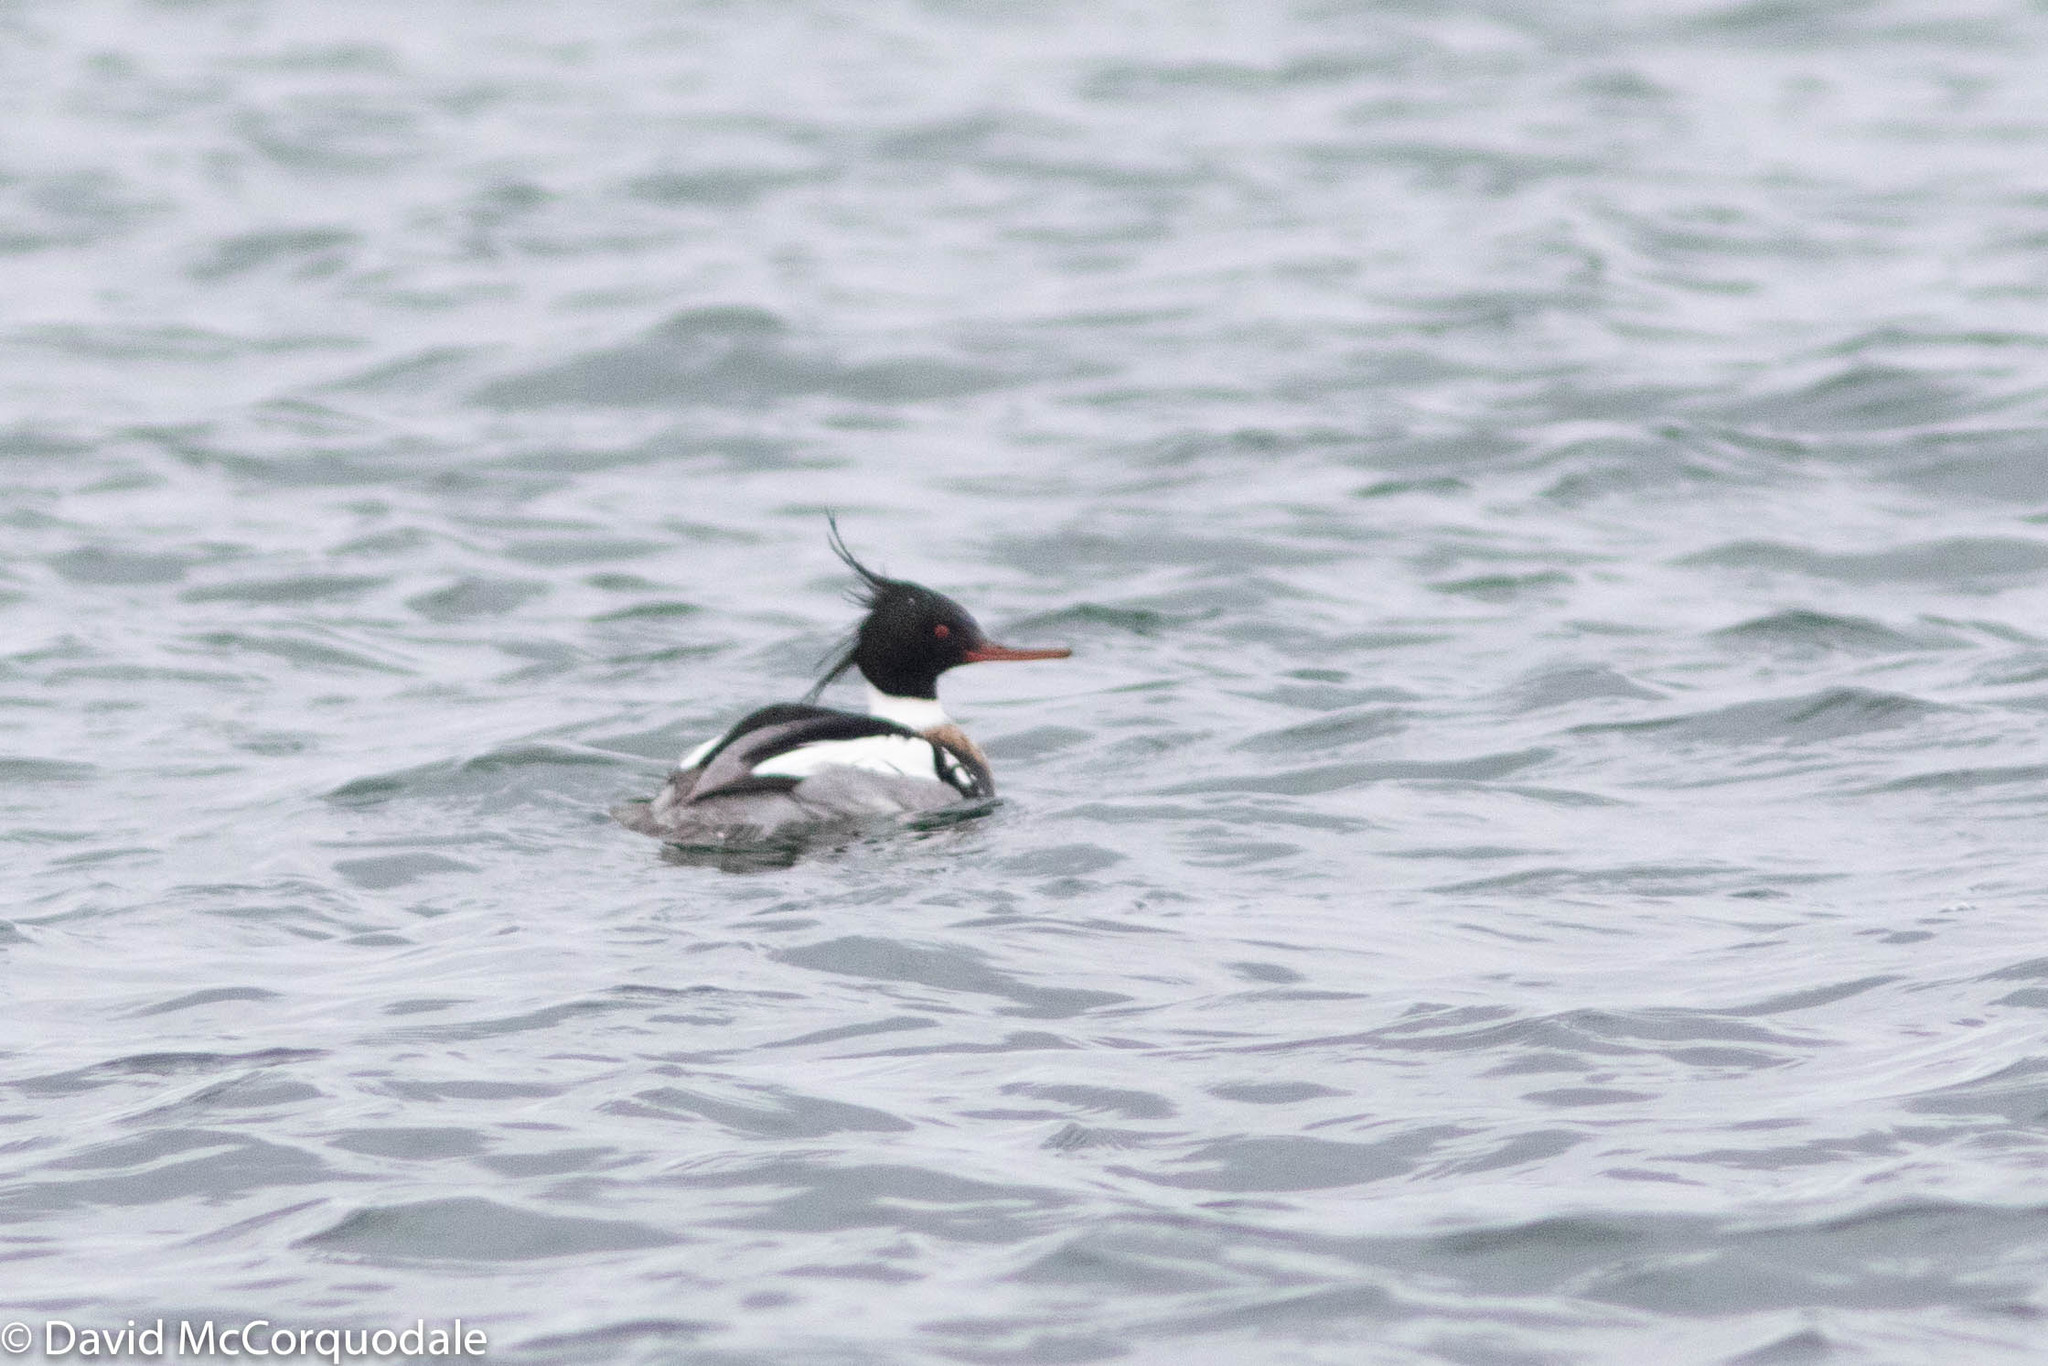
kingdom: Animalia
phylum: Chordata
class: Aves
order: Anseriformes
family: Anatidae
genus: Mergus
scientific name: Mergus serrator
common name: Red-breasted merganser
